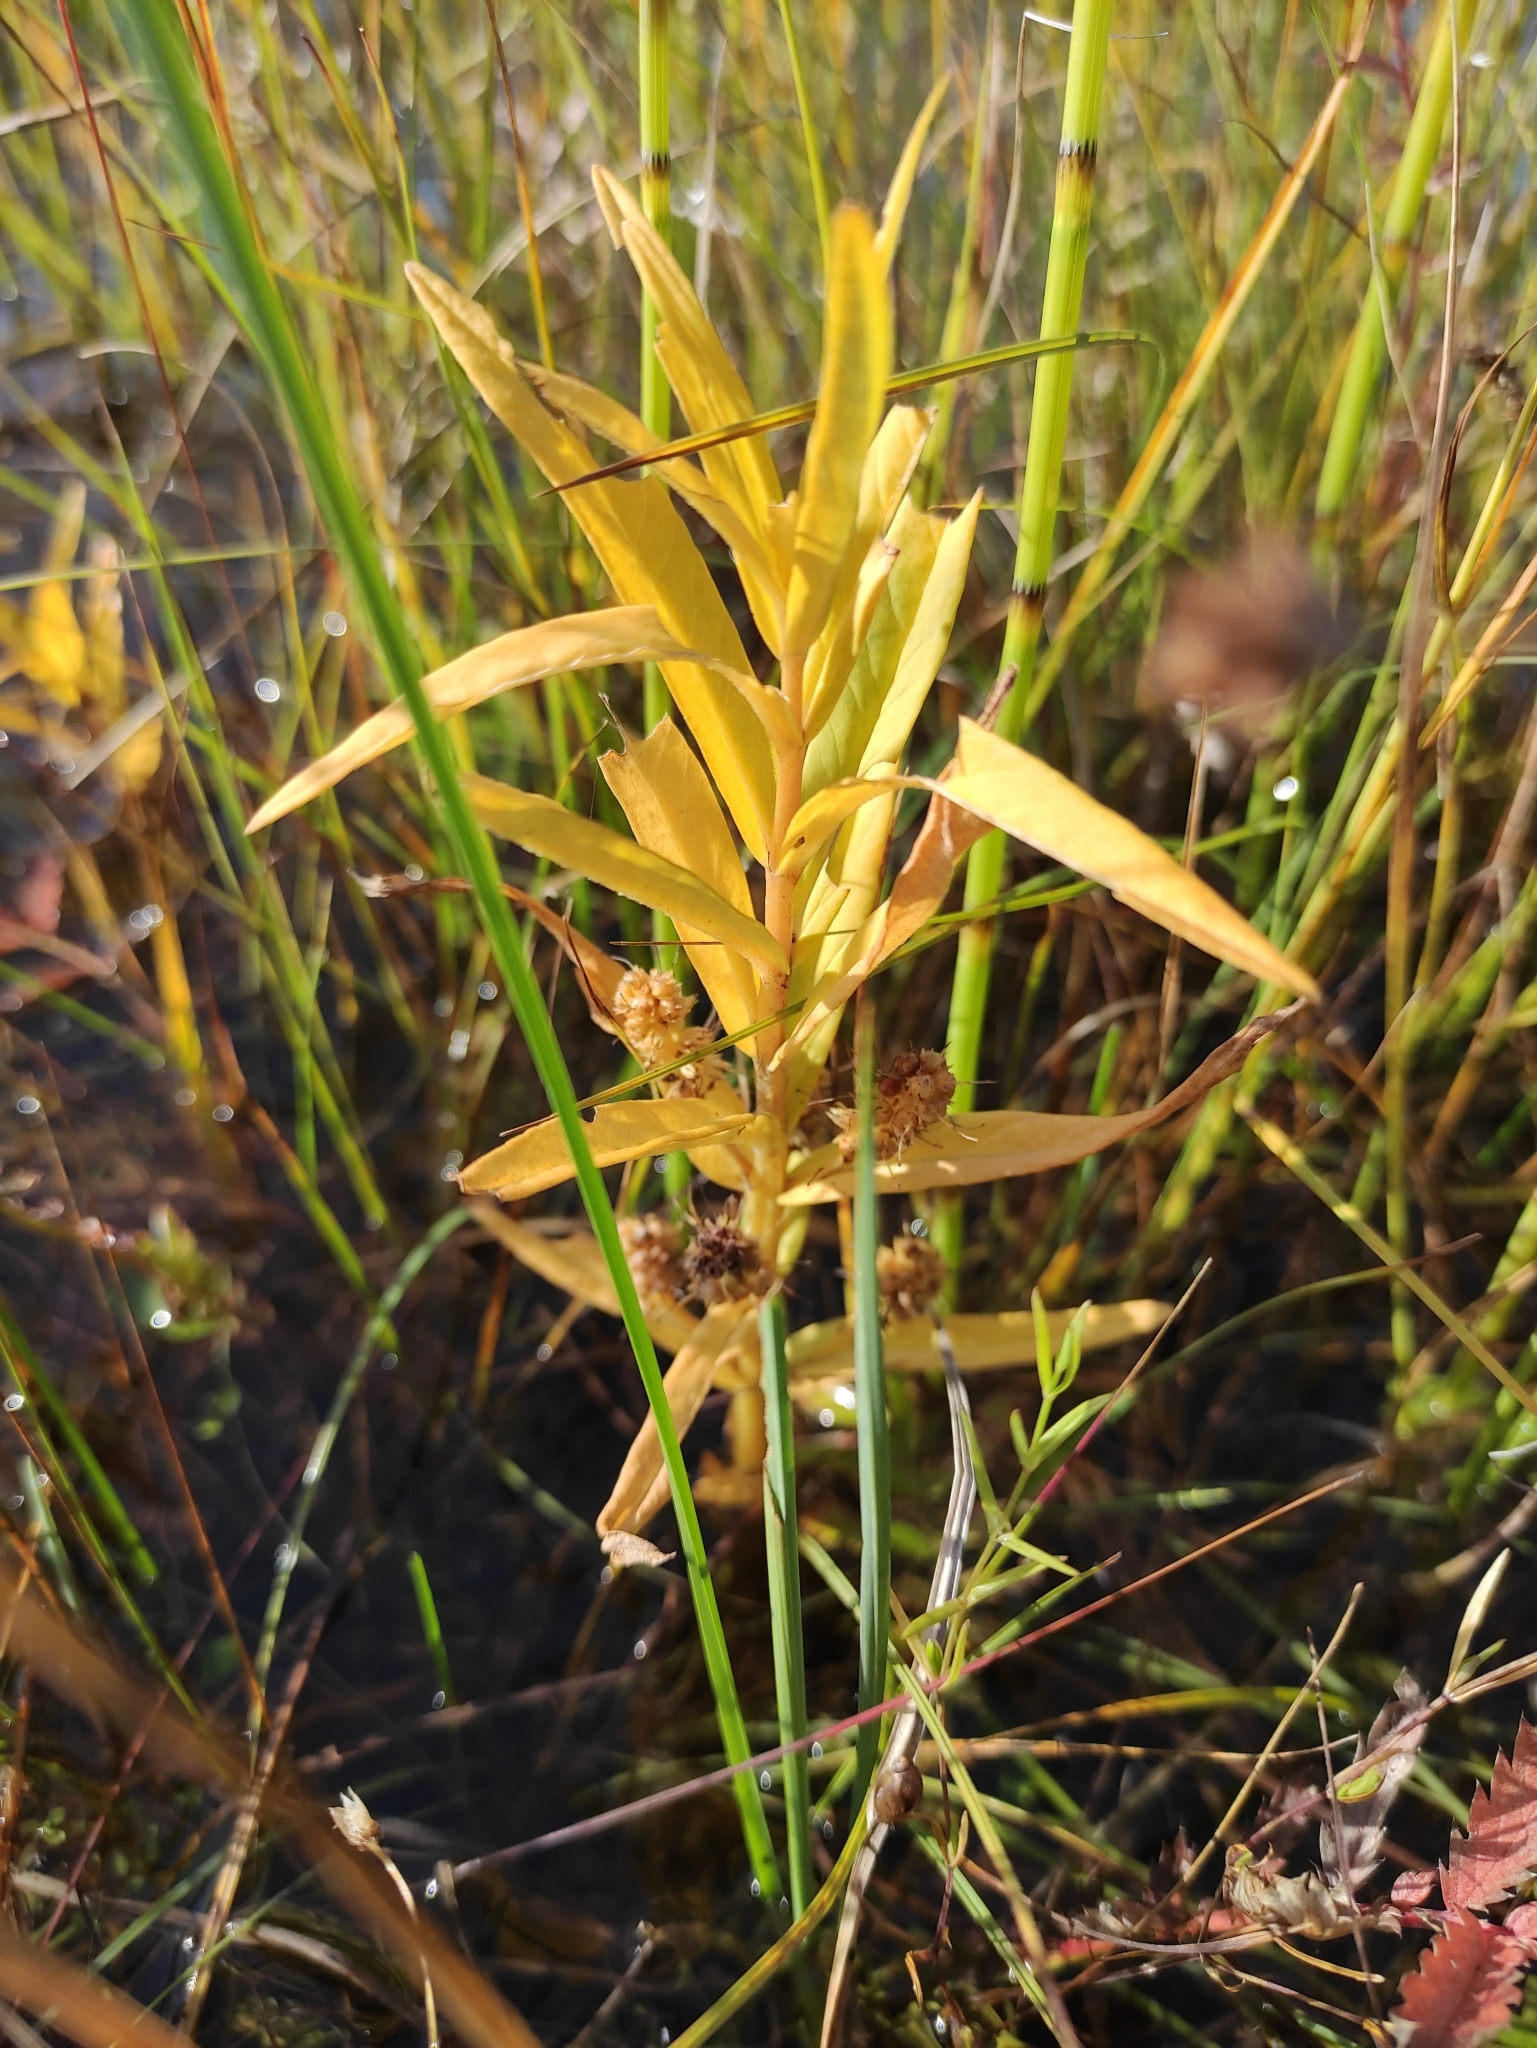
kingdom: Plantae
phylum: Tracheophyta
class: Magnoliopsida
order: Ericales
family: Primulaceae
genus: Lysimachia
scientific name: Lysimachia thyrsiflora
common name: Tufted loosestrife
